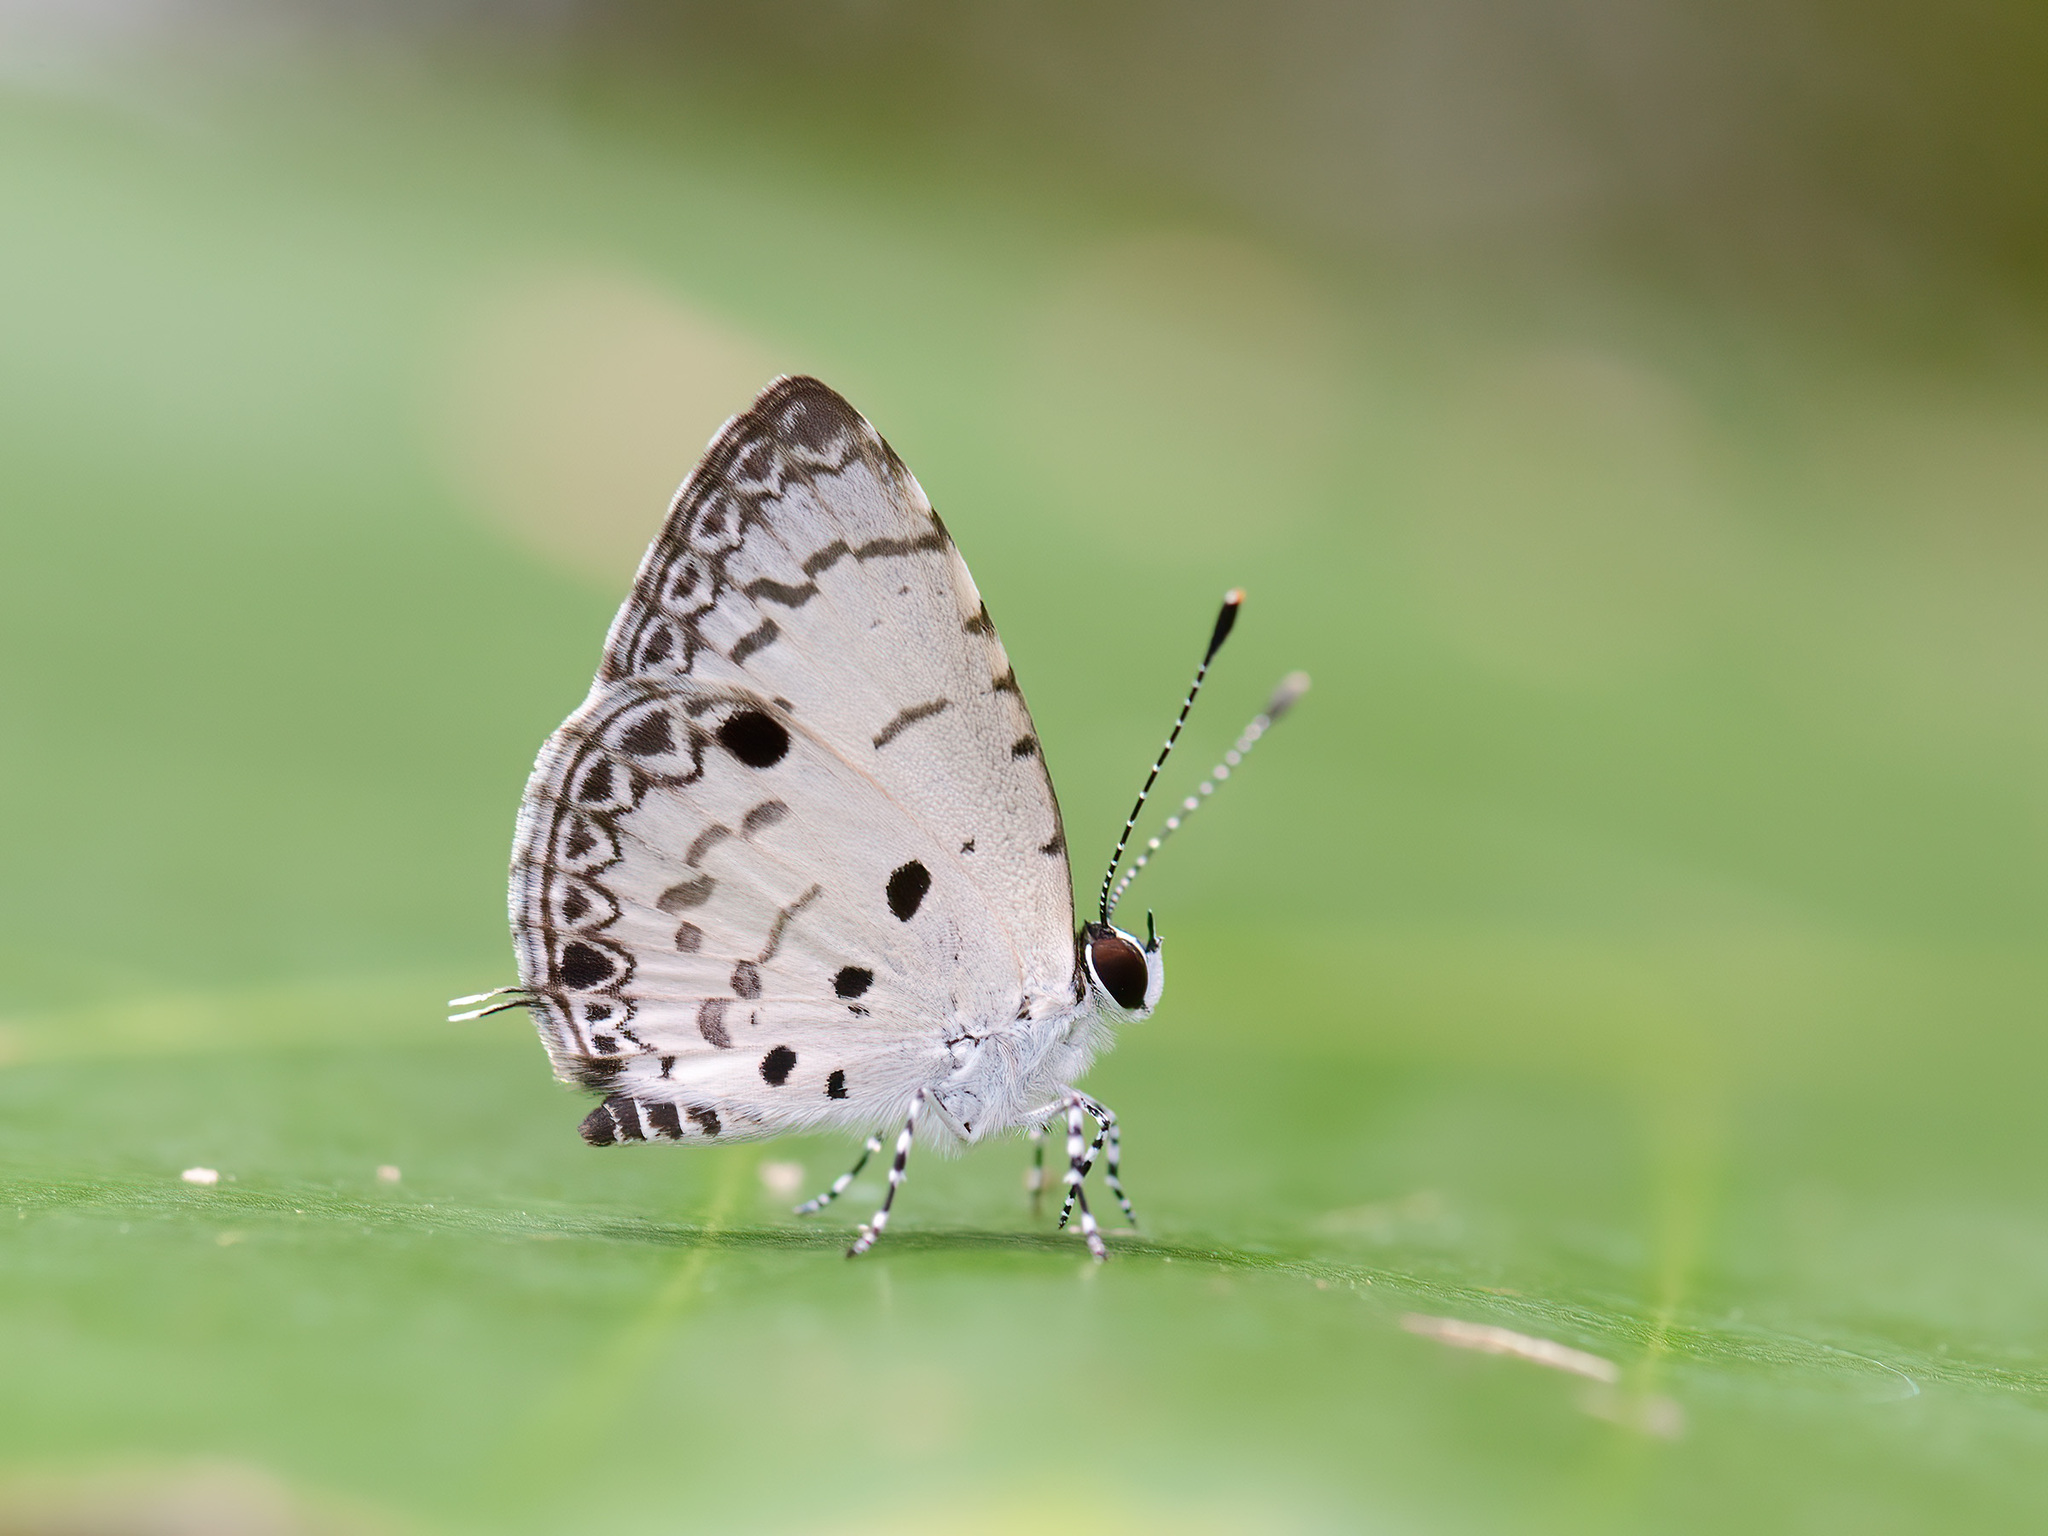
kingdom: Animalia
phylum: Arthropoda
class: Insecta
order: Lepidoptera
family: Lycaenidae
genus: Megisba
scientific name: Megisba malaya
